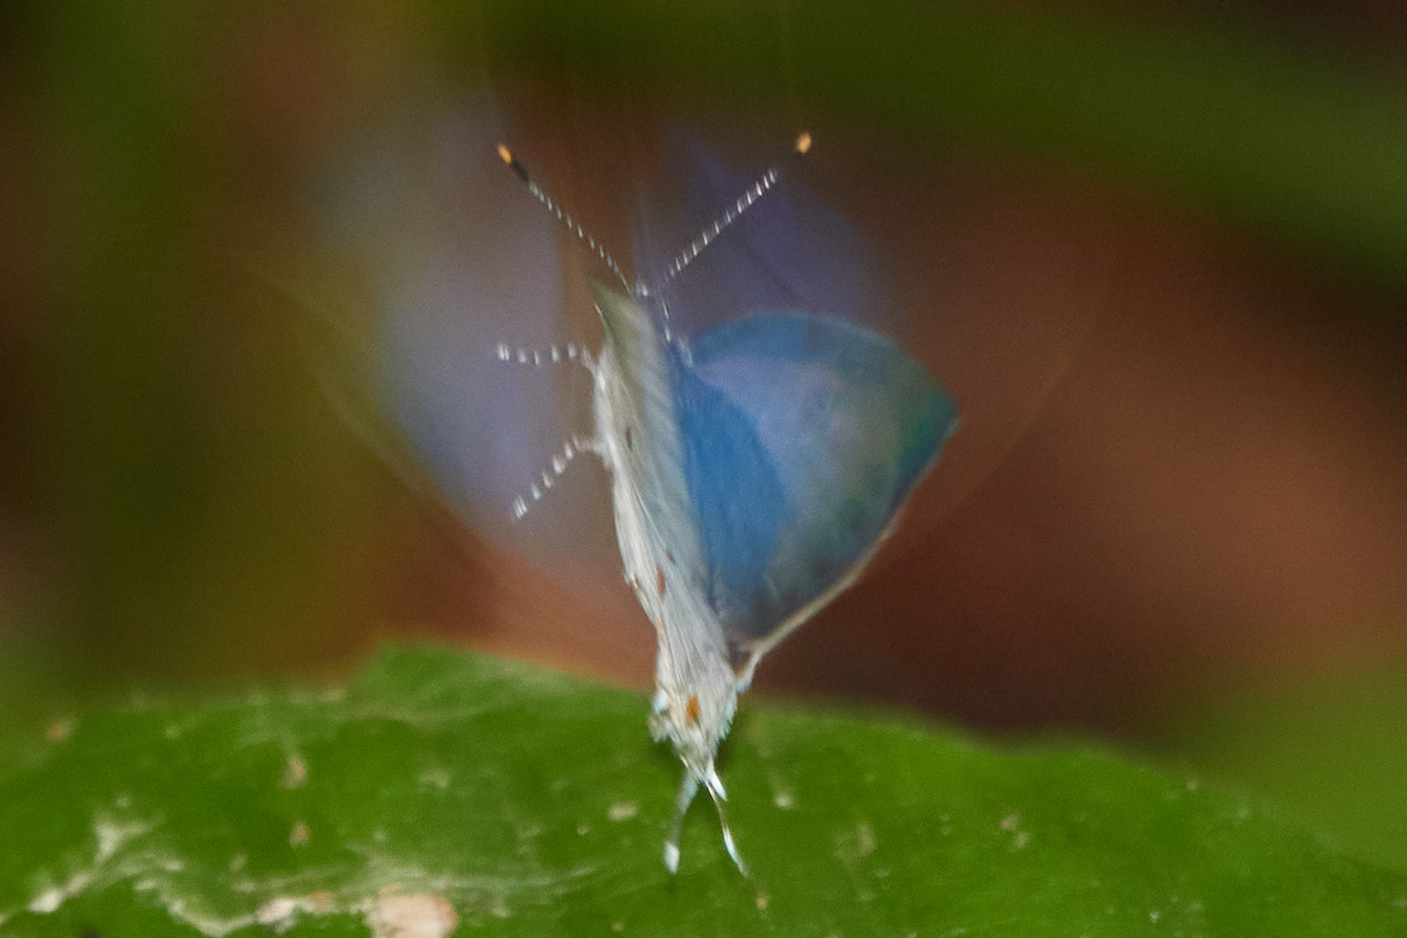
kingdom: Animalia
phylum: Arthropoda
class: Insecta
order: Lepidoptera
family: Lycaenidae
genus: Thecla
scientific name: Thecla celmus
